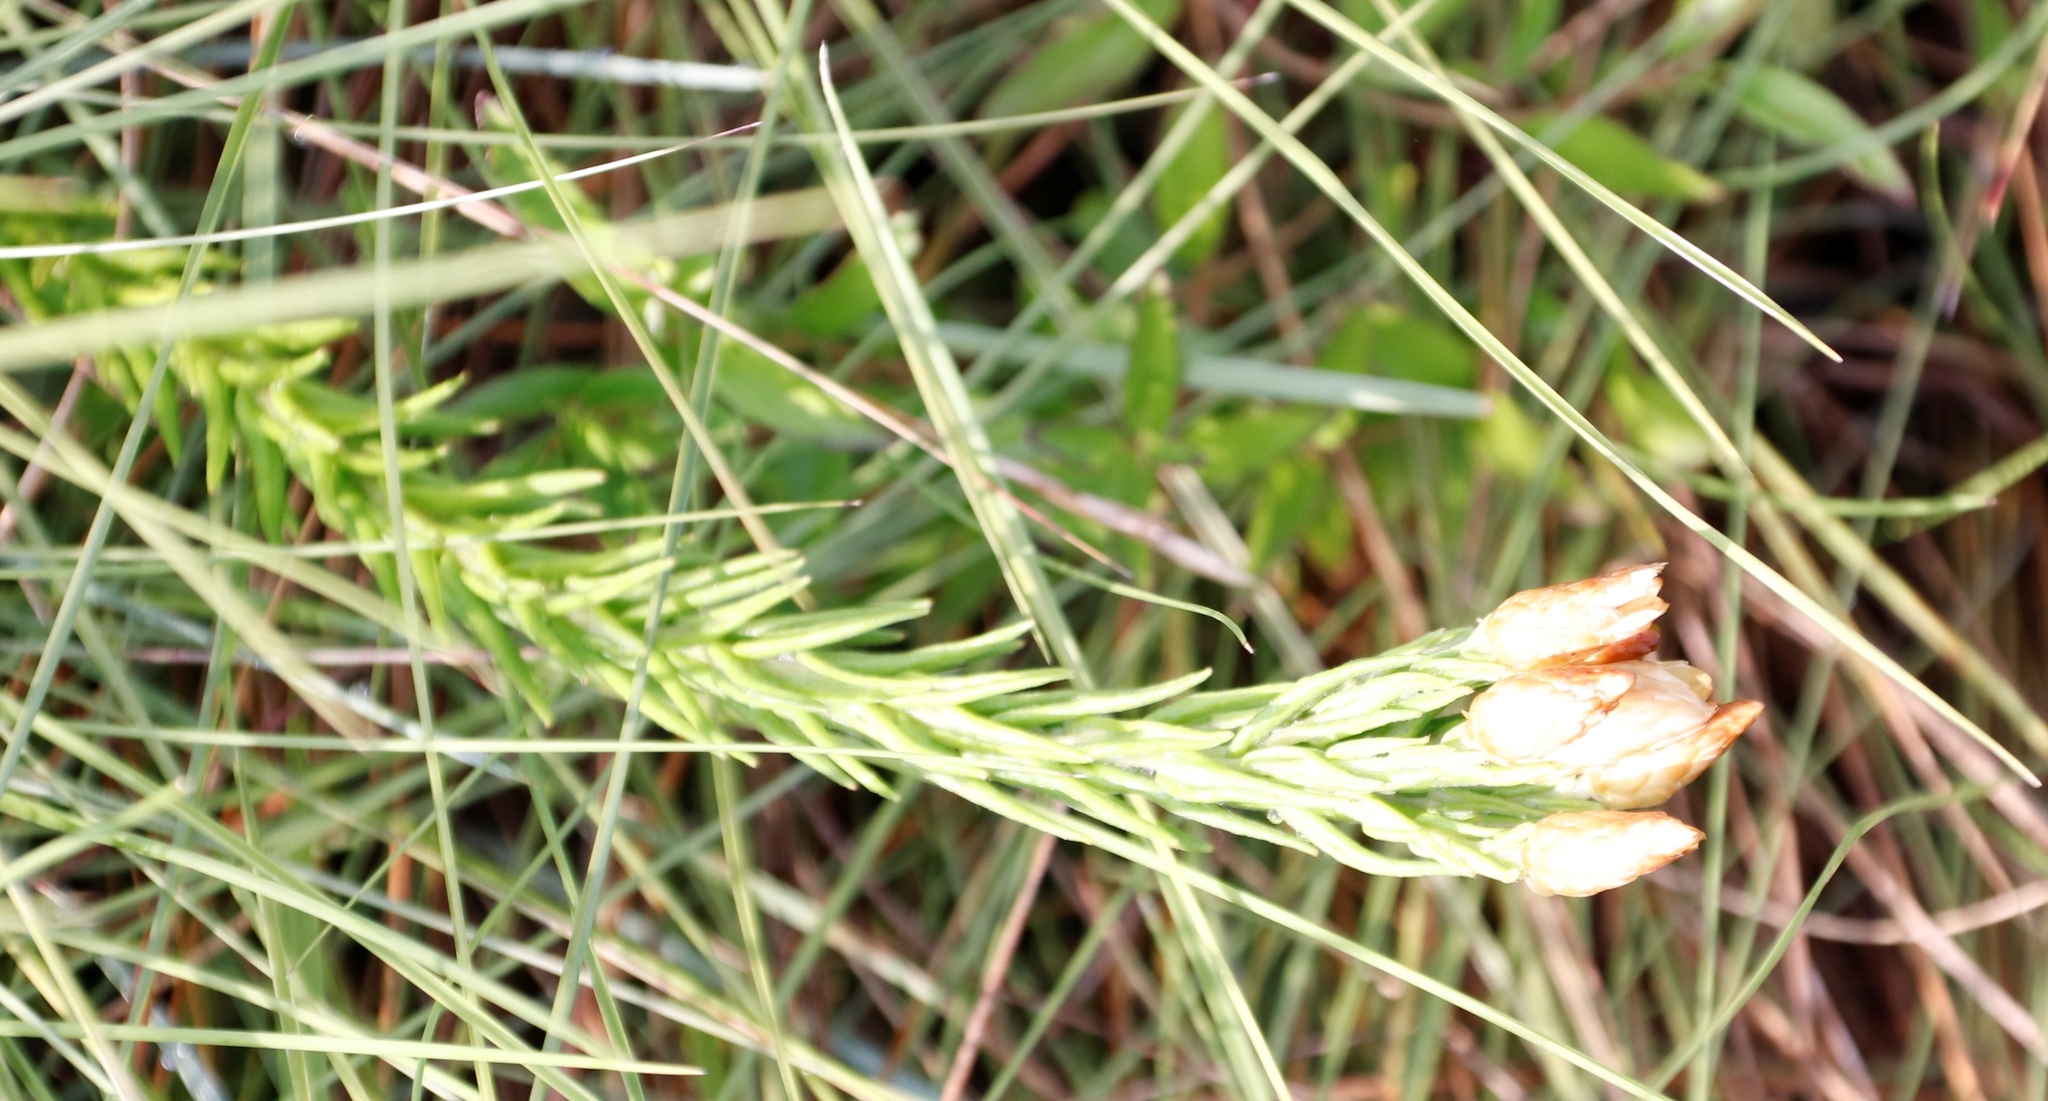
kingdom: Plantae
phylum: Tracheophyta
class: Magnoliopsida
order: Asterales
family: Asteraceae
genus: Helichrysum
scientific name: Helichrysum herbaceum
